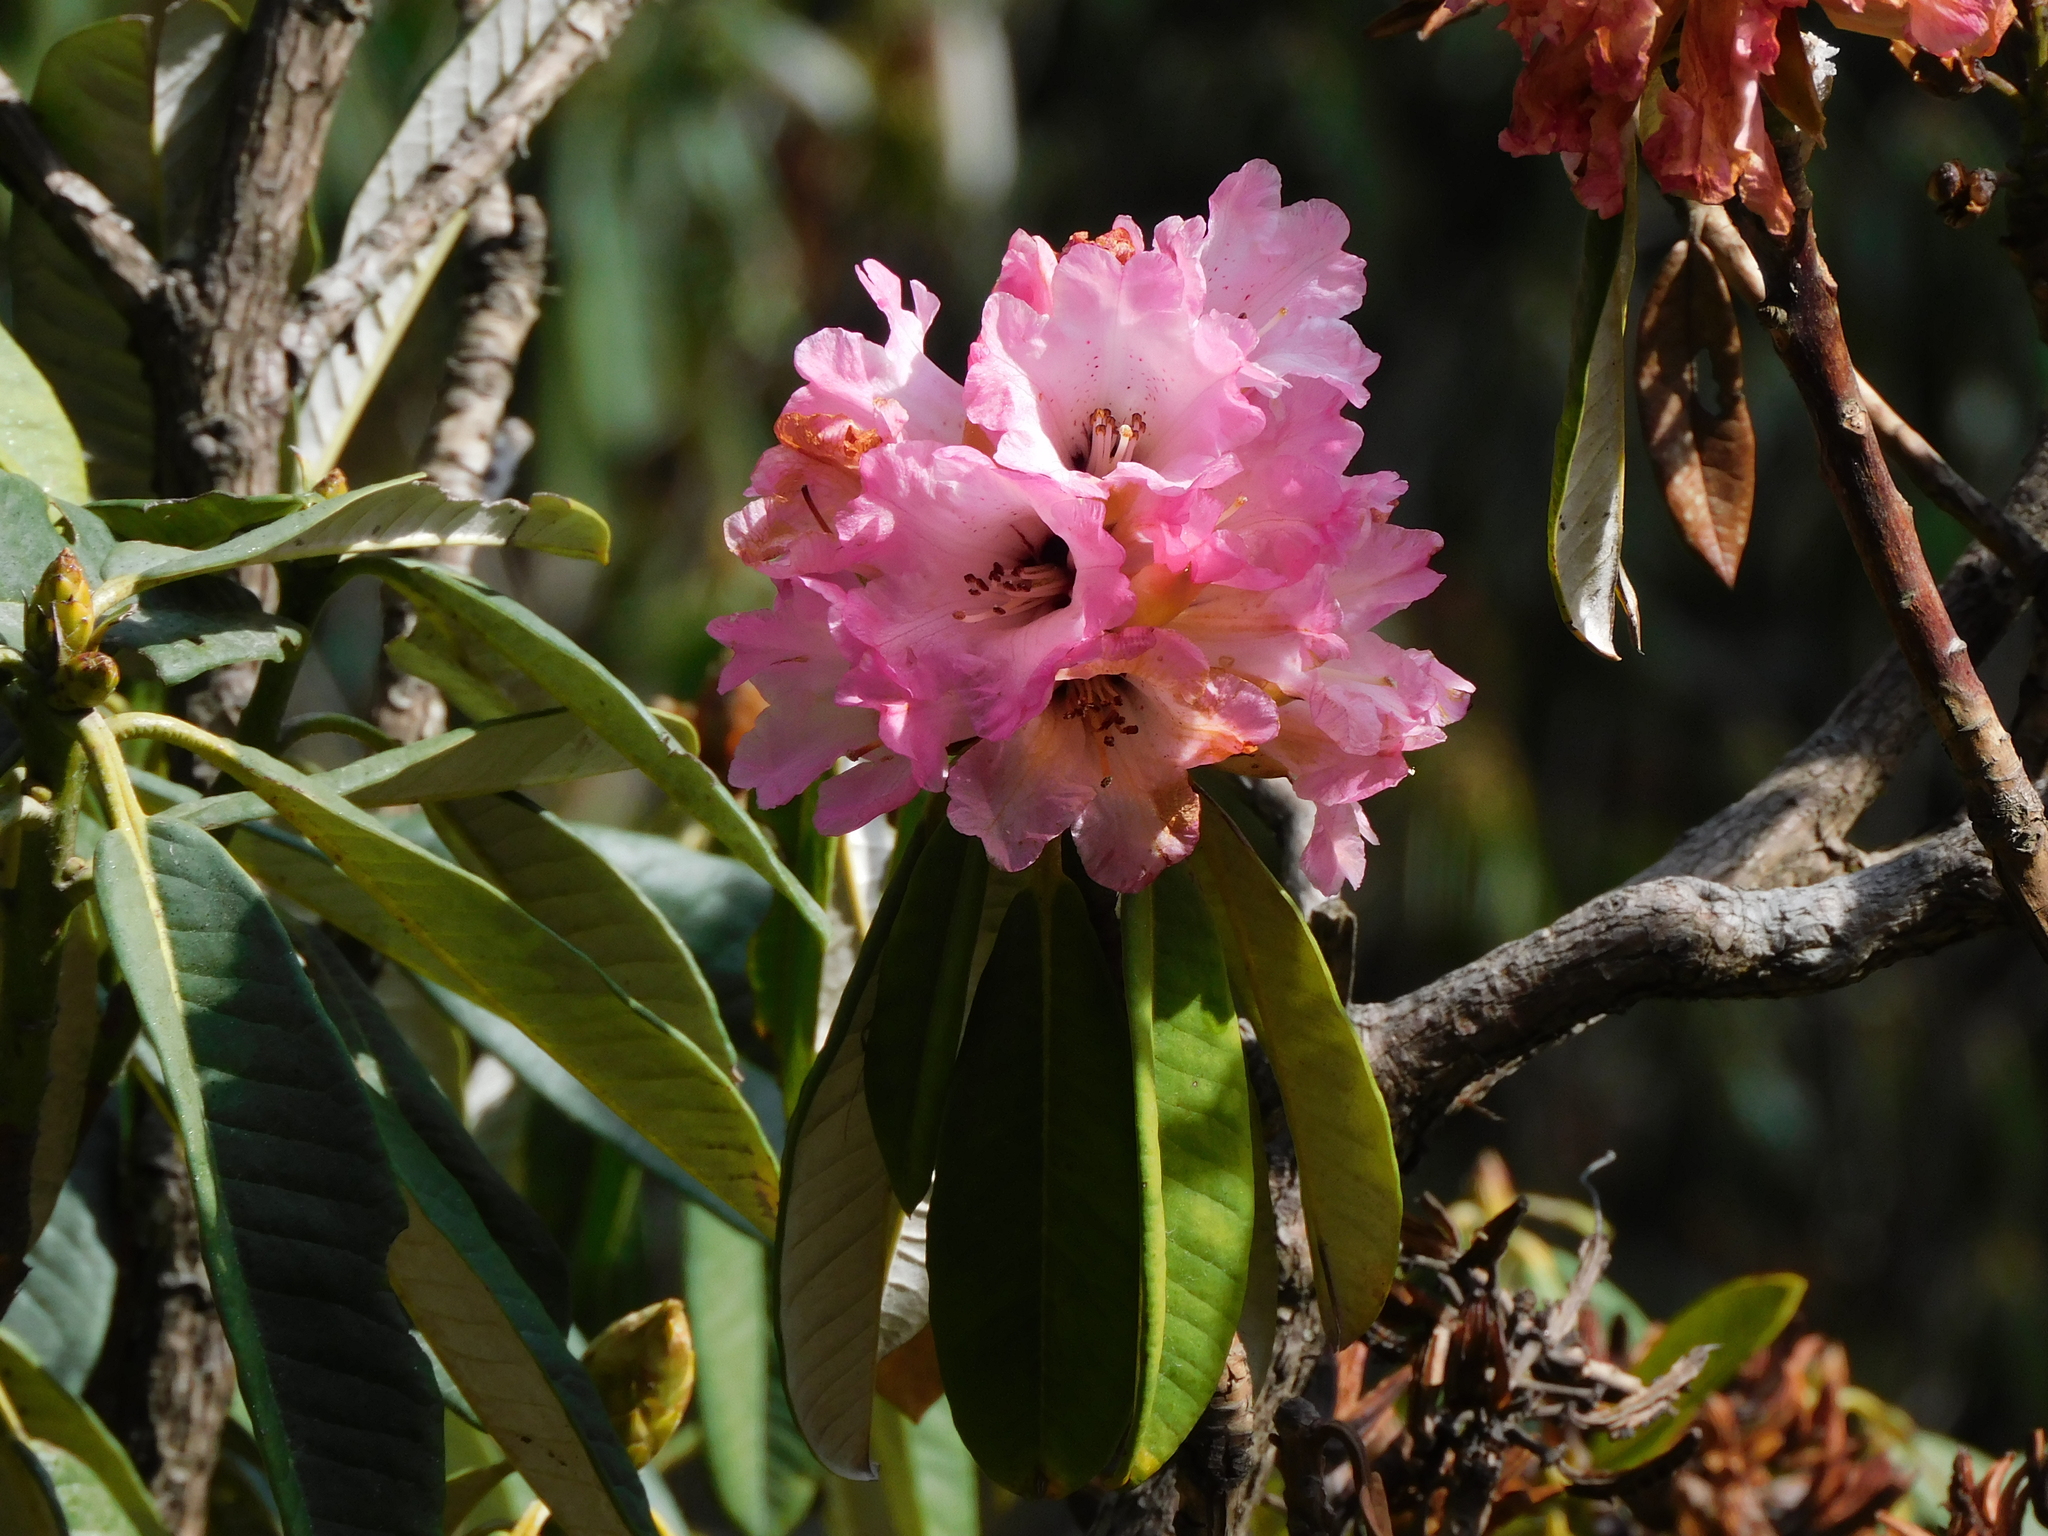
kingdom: Plantae
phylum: Tracheophyta
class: Magnoliopsida
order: Ericales
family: Ericaceae
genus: Rhododendron
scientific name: Rhododendron arboreum
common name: Tree rhododendron
